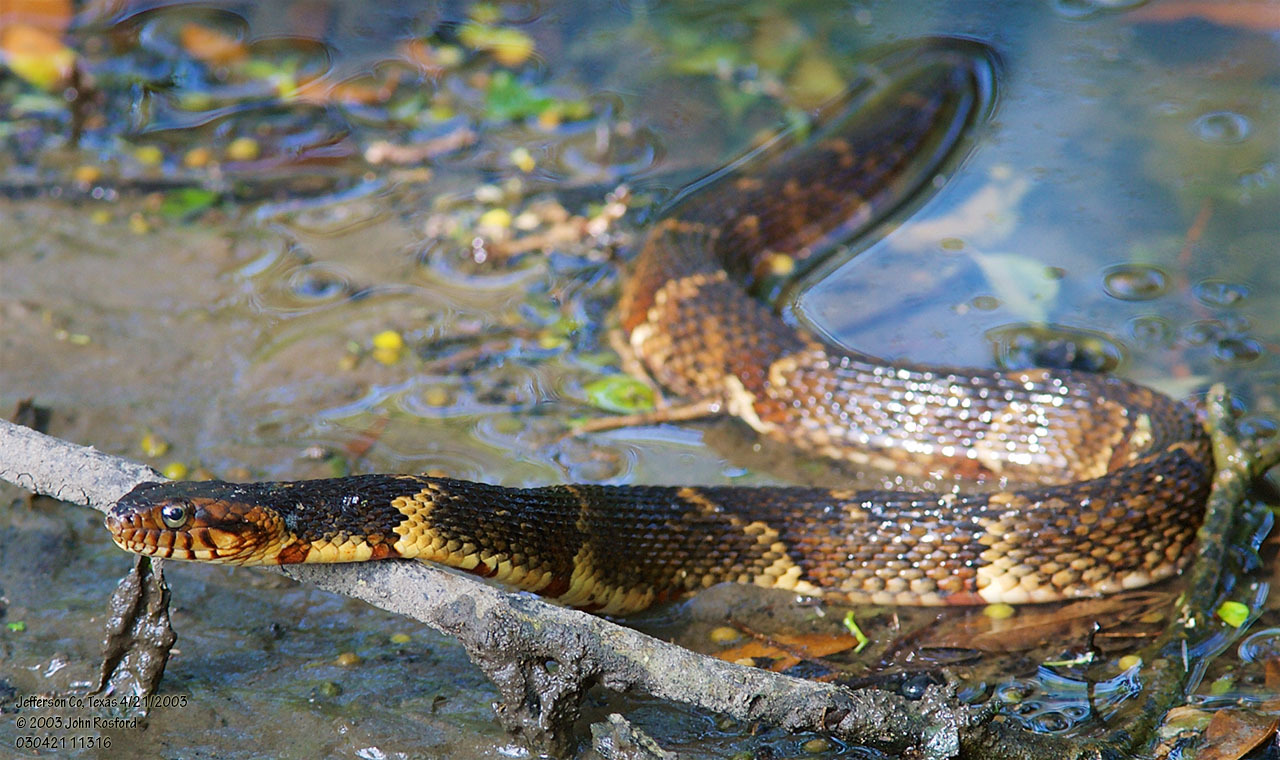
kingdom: Animalia
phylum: Chordata
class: Squamata
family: Colubridae
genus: Nerodia
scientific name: Nerodia fasciata
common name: Southern water snake
